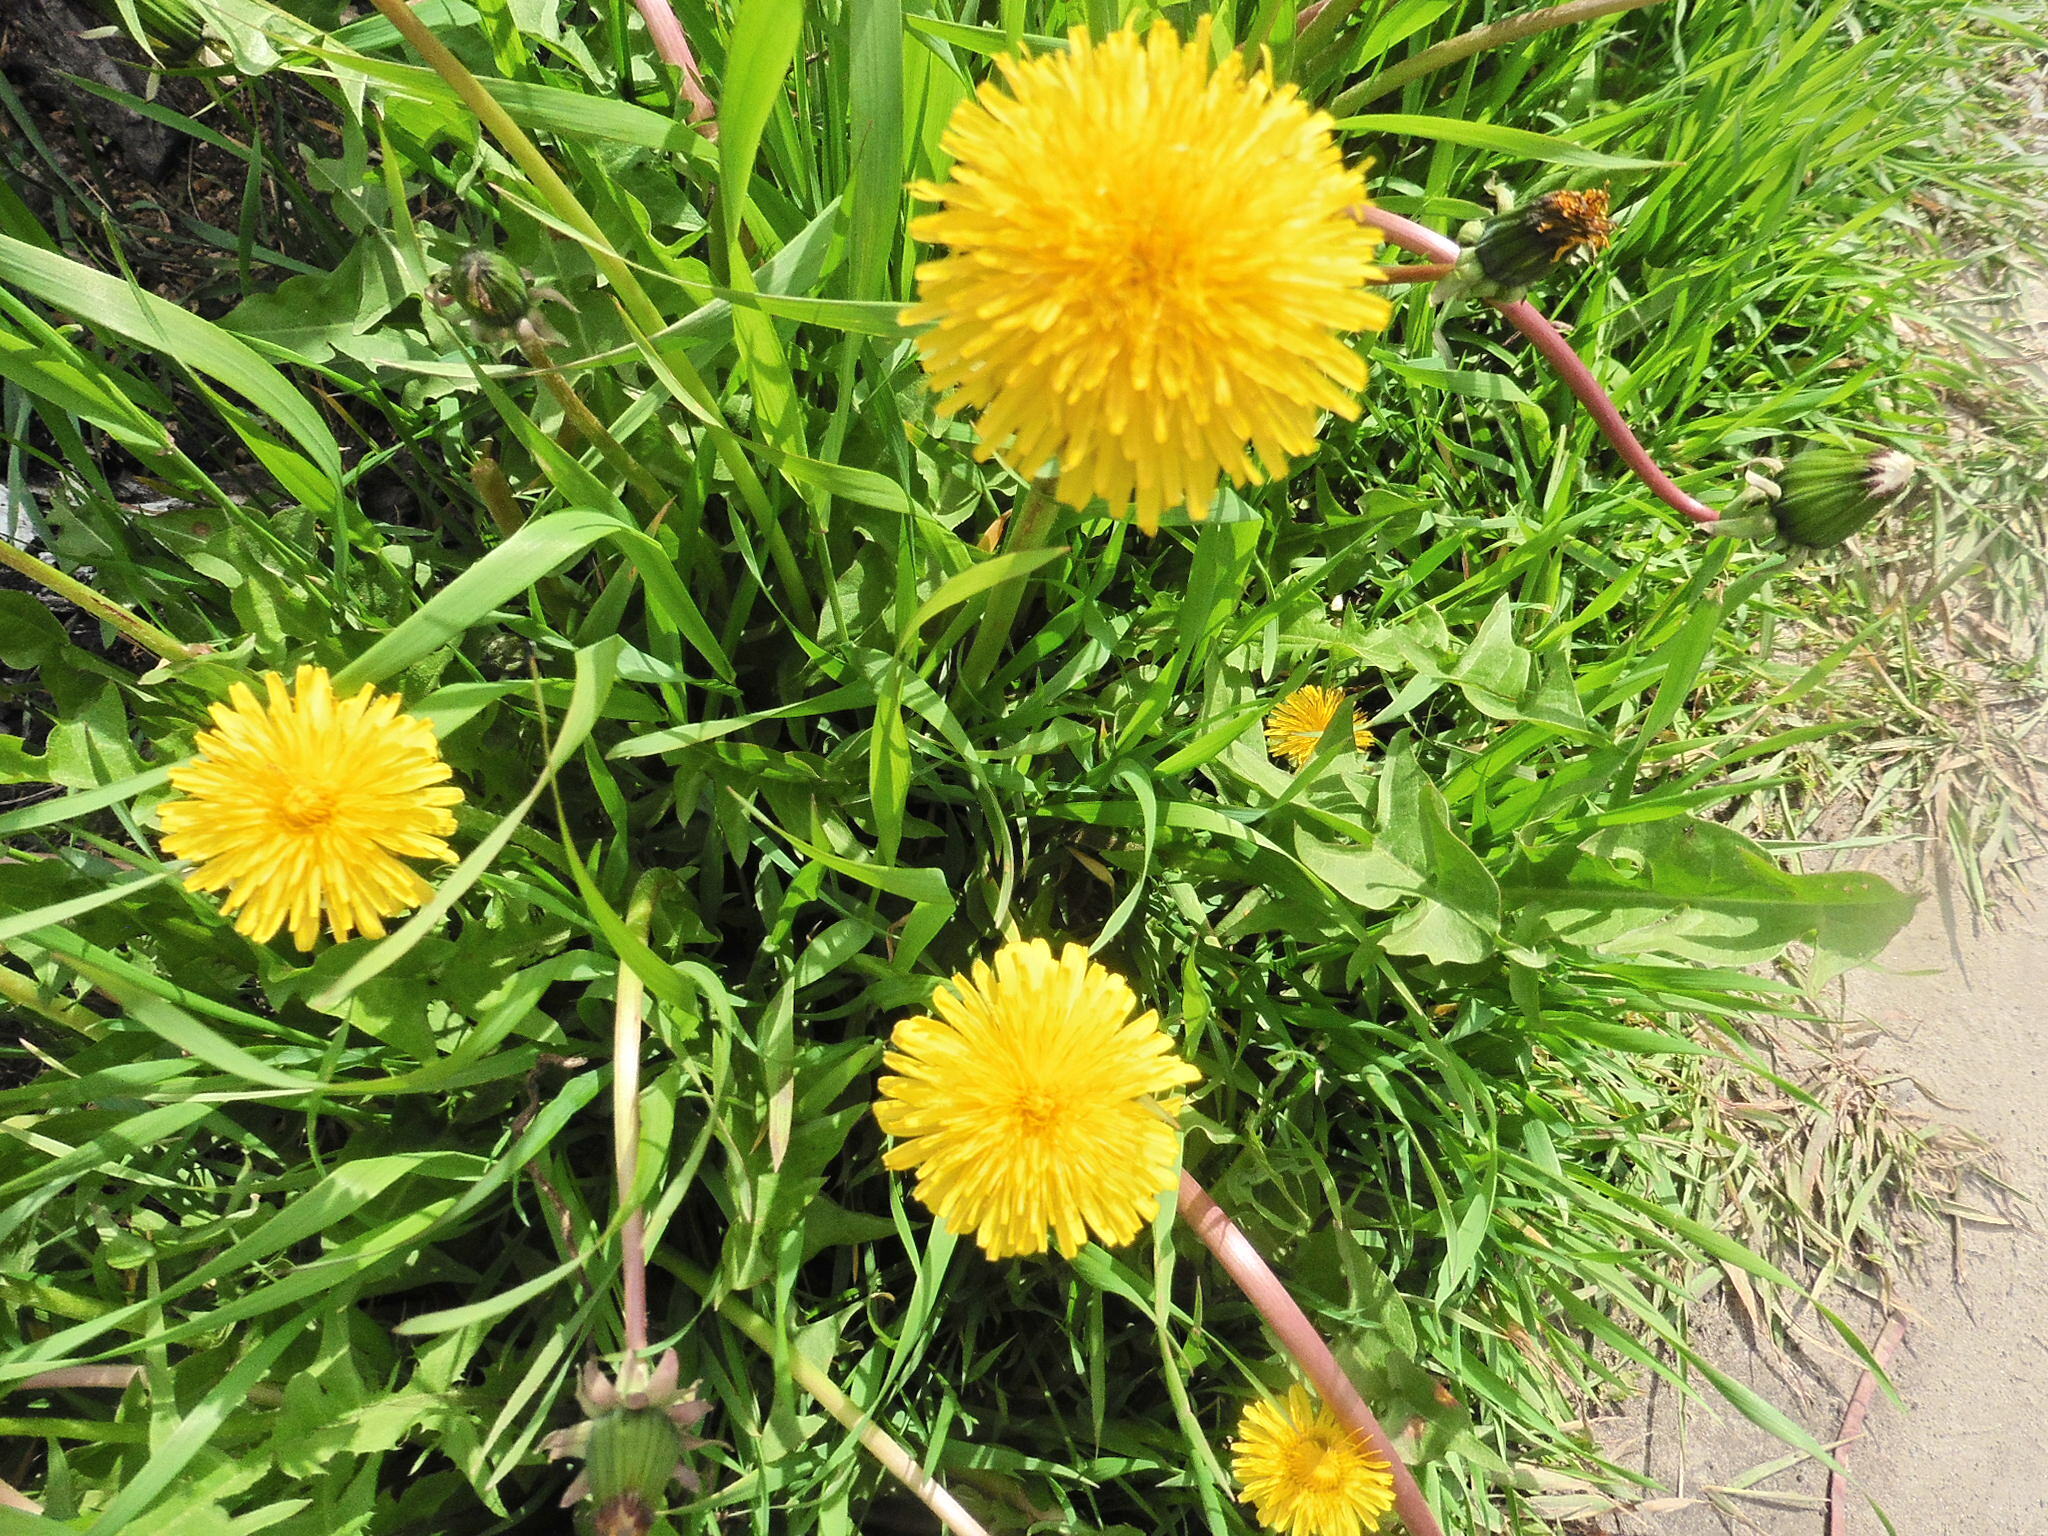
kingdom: Plantae
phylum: Tracheophyta
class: Magnoliopsida
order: Asterales
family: Asteraceae
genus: Taraxacum
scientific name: Taraxacum officinale
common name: Common dandelion
